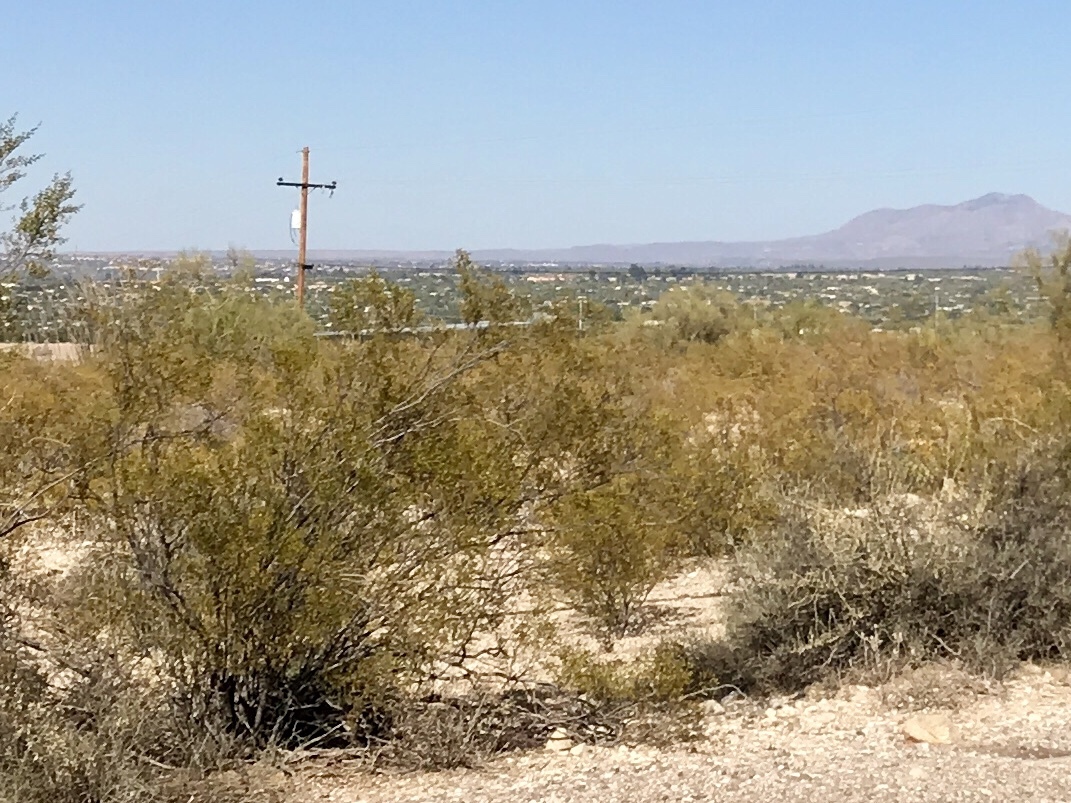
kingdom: Plantae
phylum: Tracheophyta
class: Magnoliopsida
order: Zygophyllales
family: Zygophyllaceae
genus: Larrea
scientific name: Larrea tridentata
